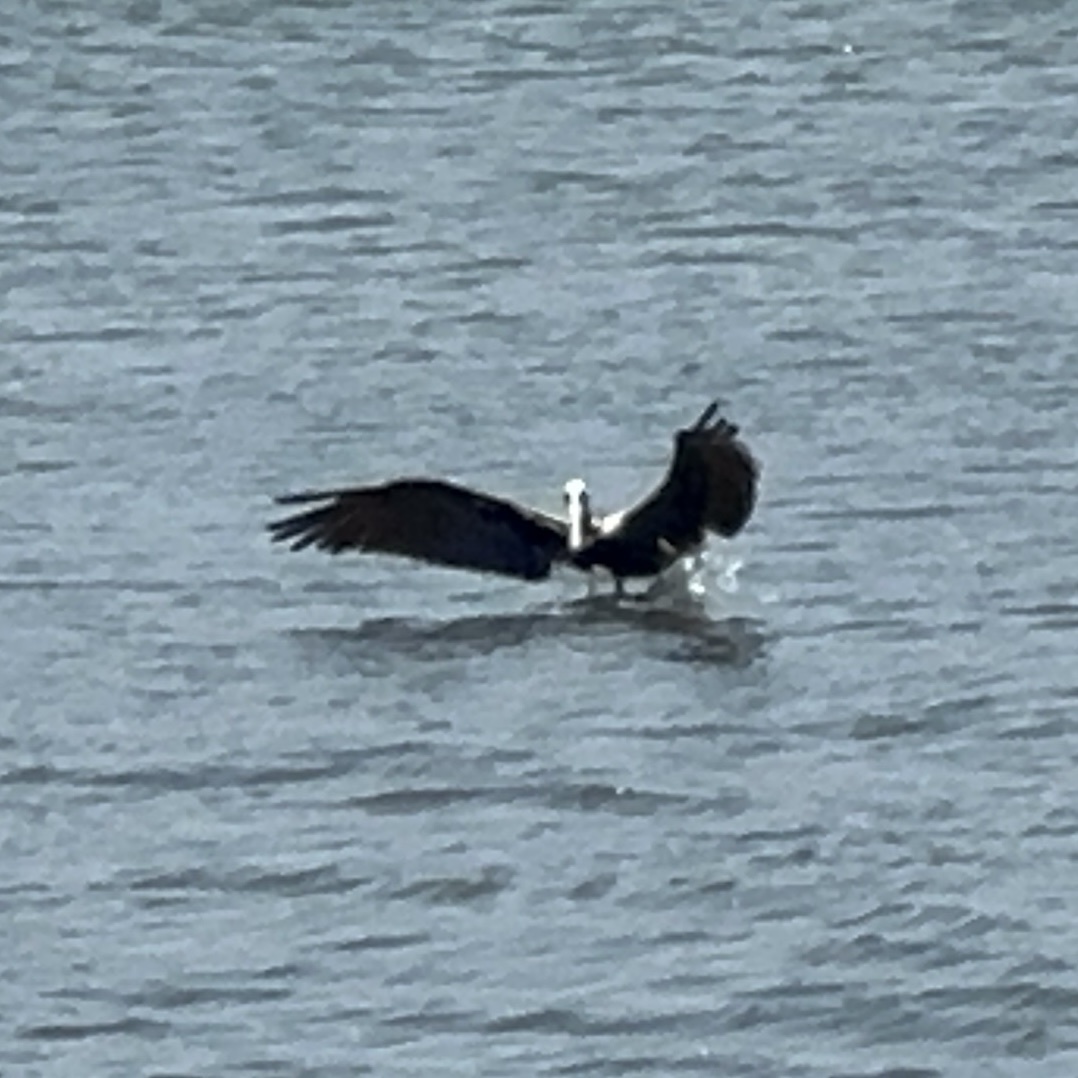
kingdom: Animalia
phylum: Chordata
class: Aves
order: Pelecaniformes
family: Pelecanidae
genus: Pelecanus
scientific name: Pelecanus occidentalis
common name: Brown pelican
